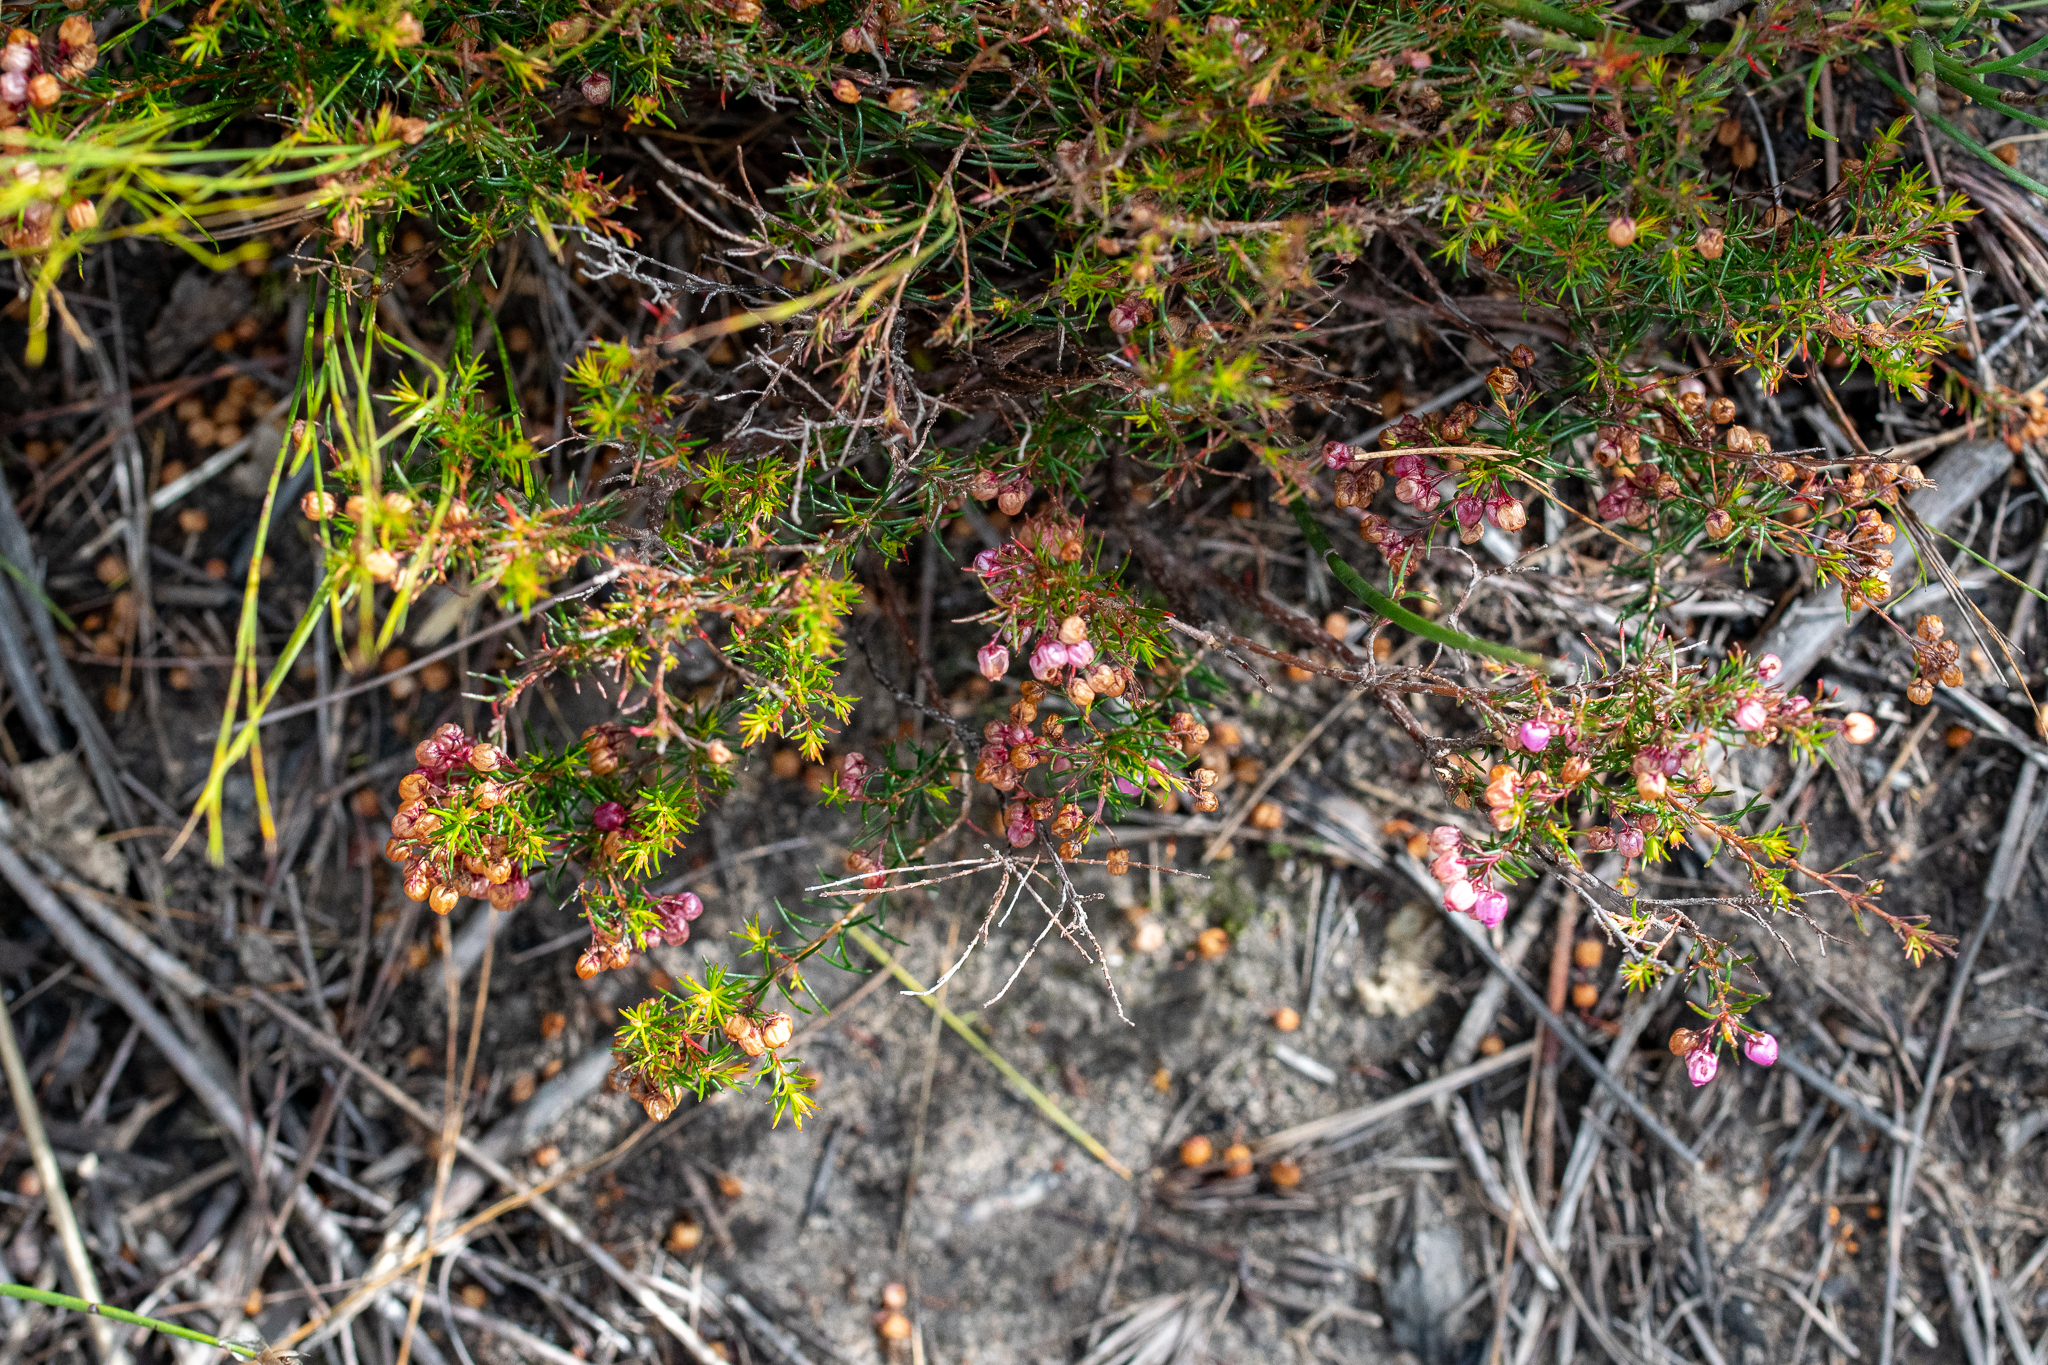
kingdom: Plantae
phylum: Tracheophyta
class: Magnoliopsida
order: Ericales
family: Ericaceae
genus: Erica
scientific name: Erica multumbellifera
